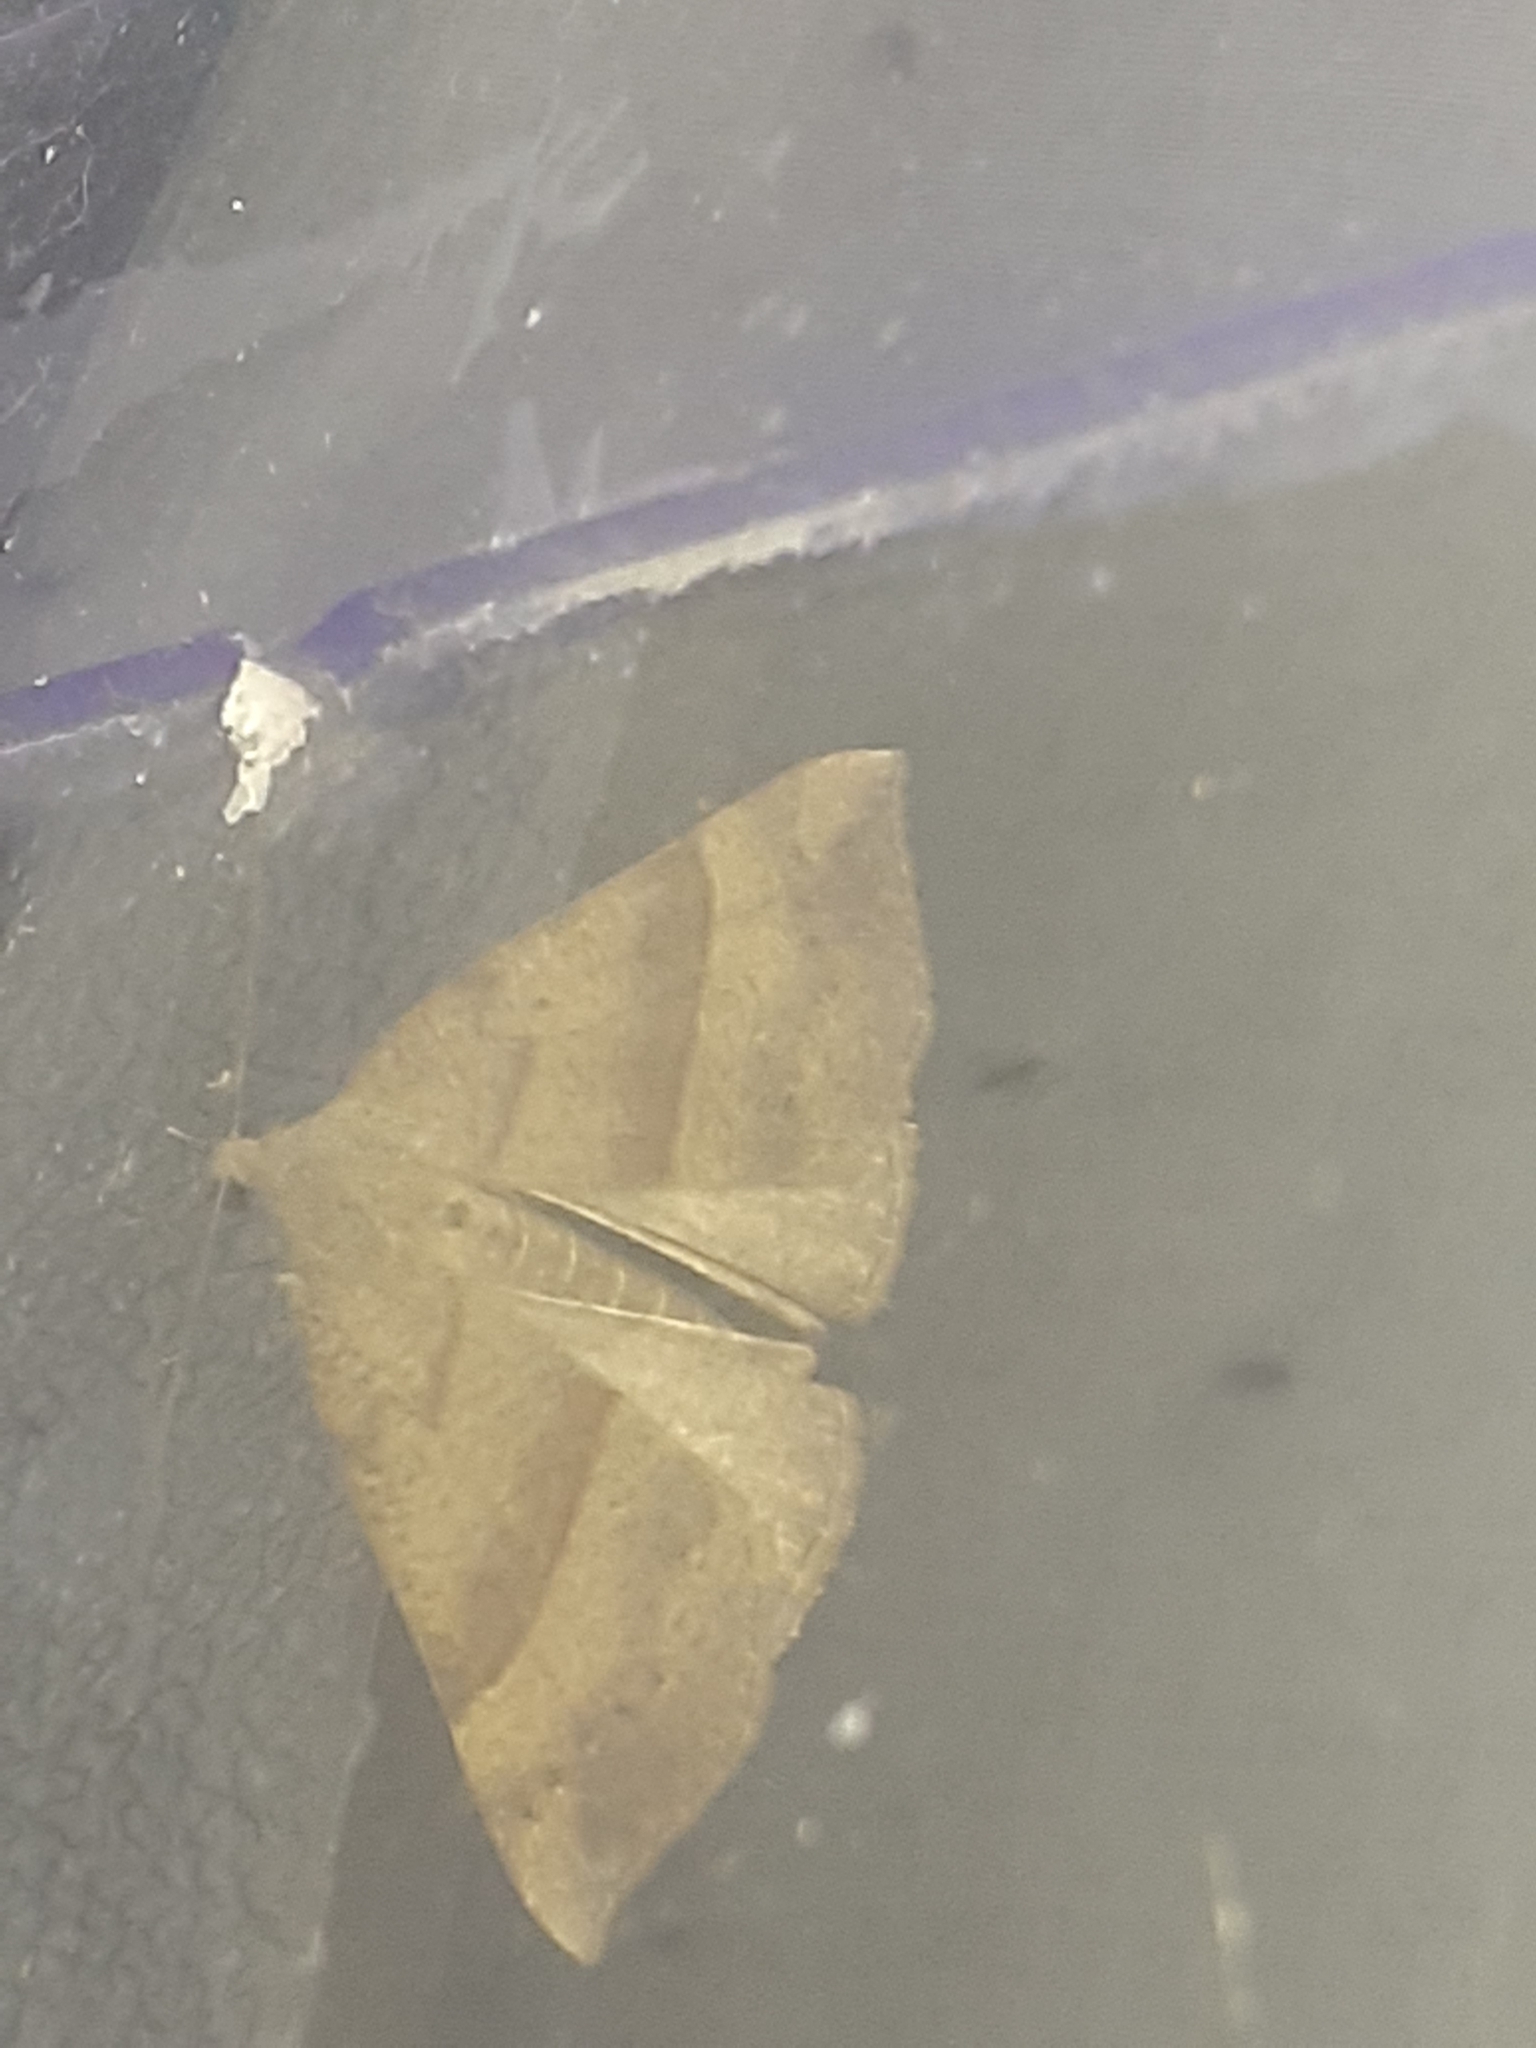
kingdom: Animalia
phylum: Arthropoda
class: Insecta
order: Lepidoptera
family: Erebidae
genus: Hypena
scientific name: Hypena proboscidalis
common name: Snout
